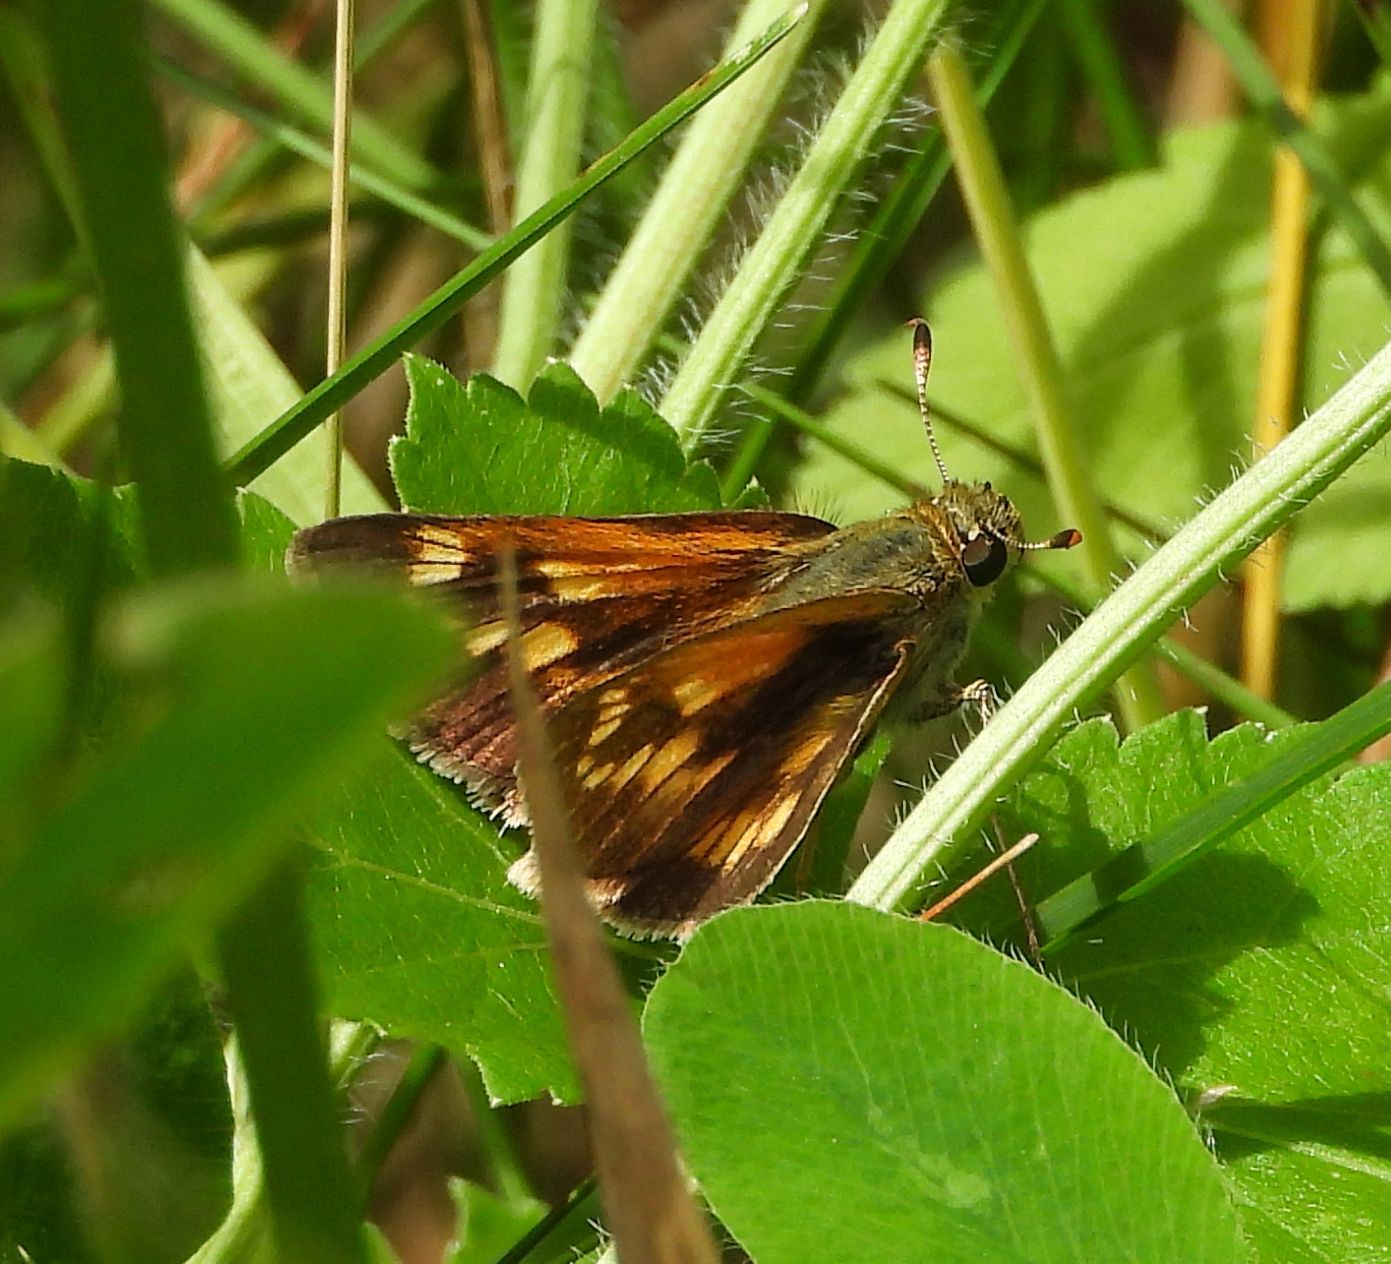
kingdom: Animalia
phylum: Arthropoda
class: Insecta
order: Lepidoptera
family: Hesperiidae
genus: Polites
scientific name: Polites mystic
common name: Long dash
